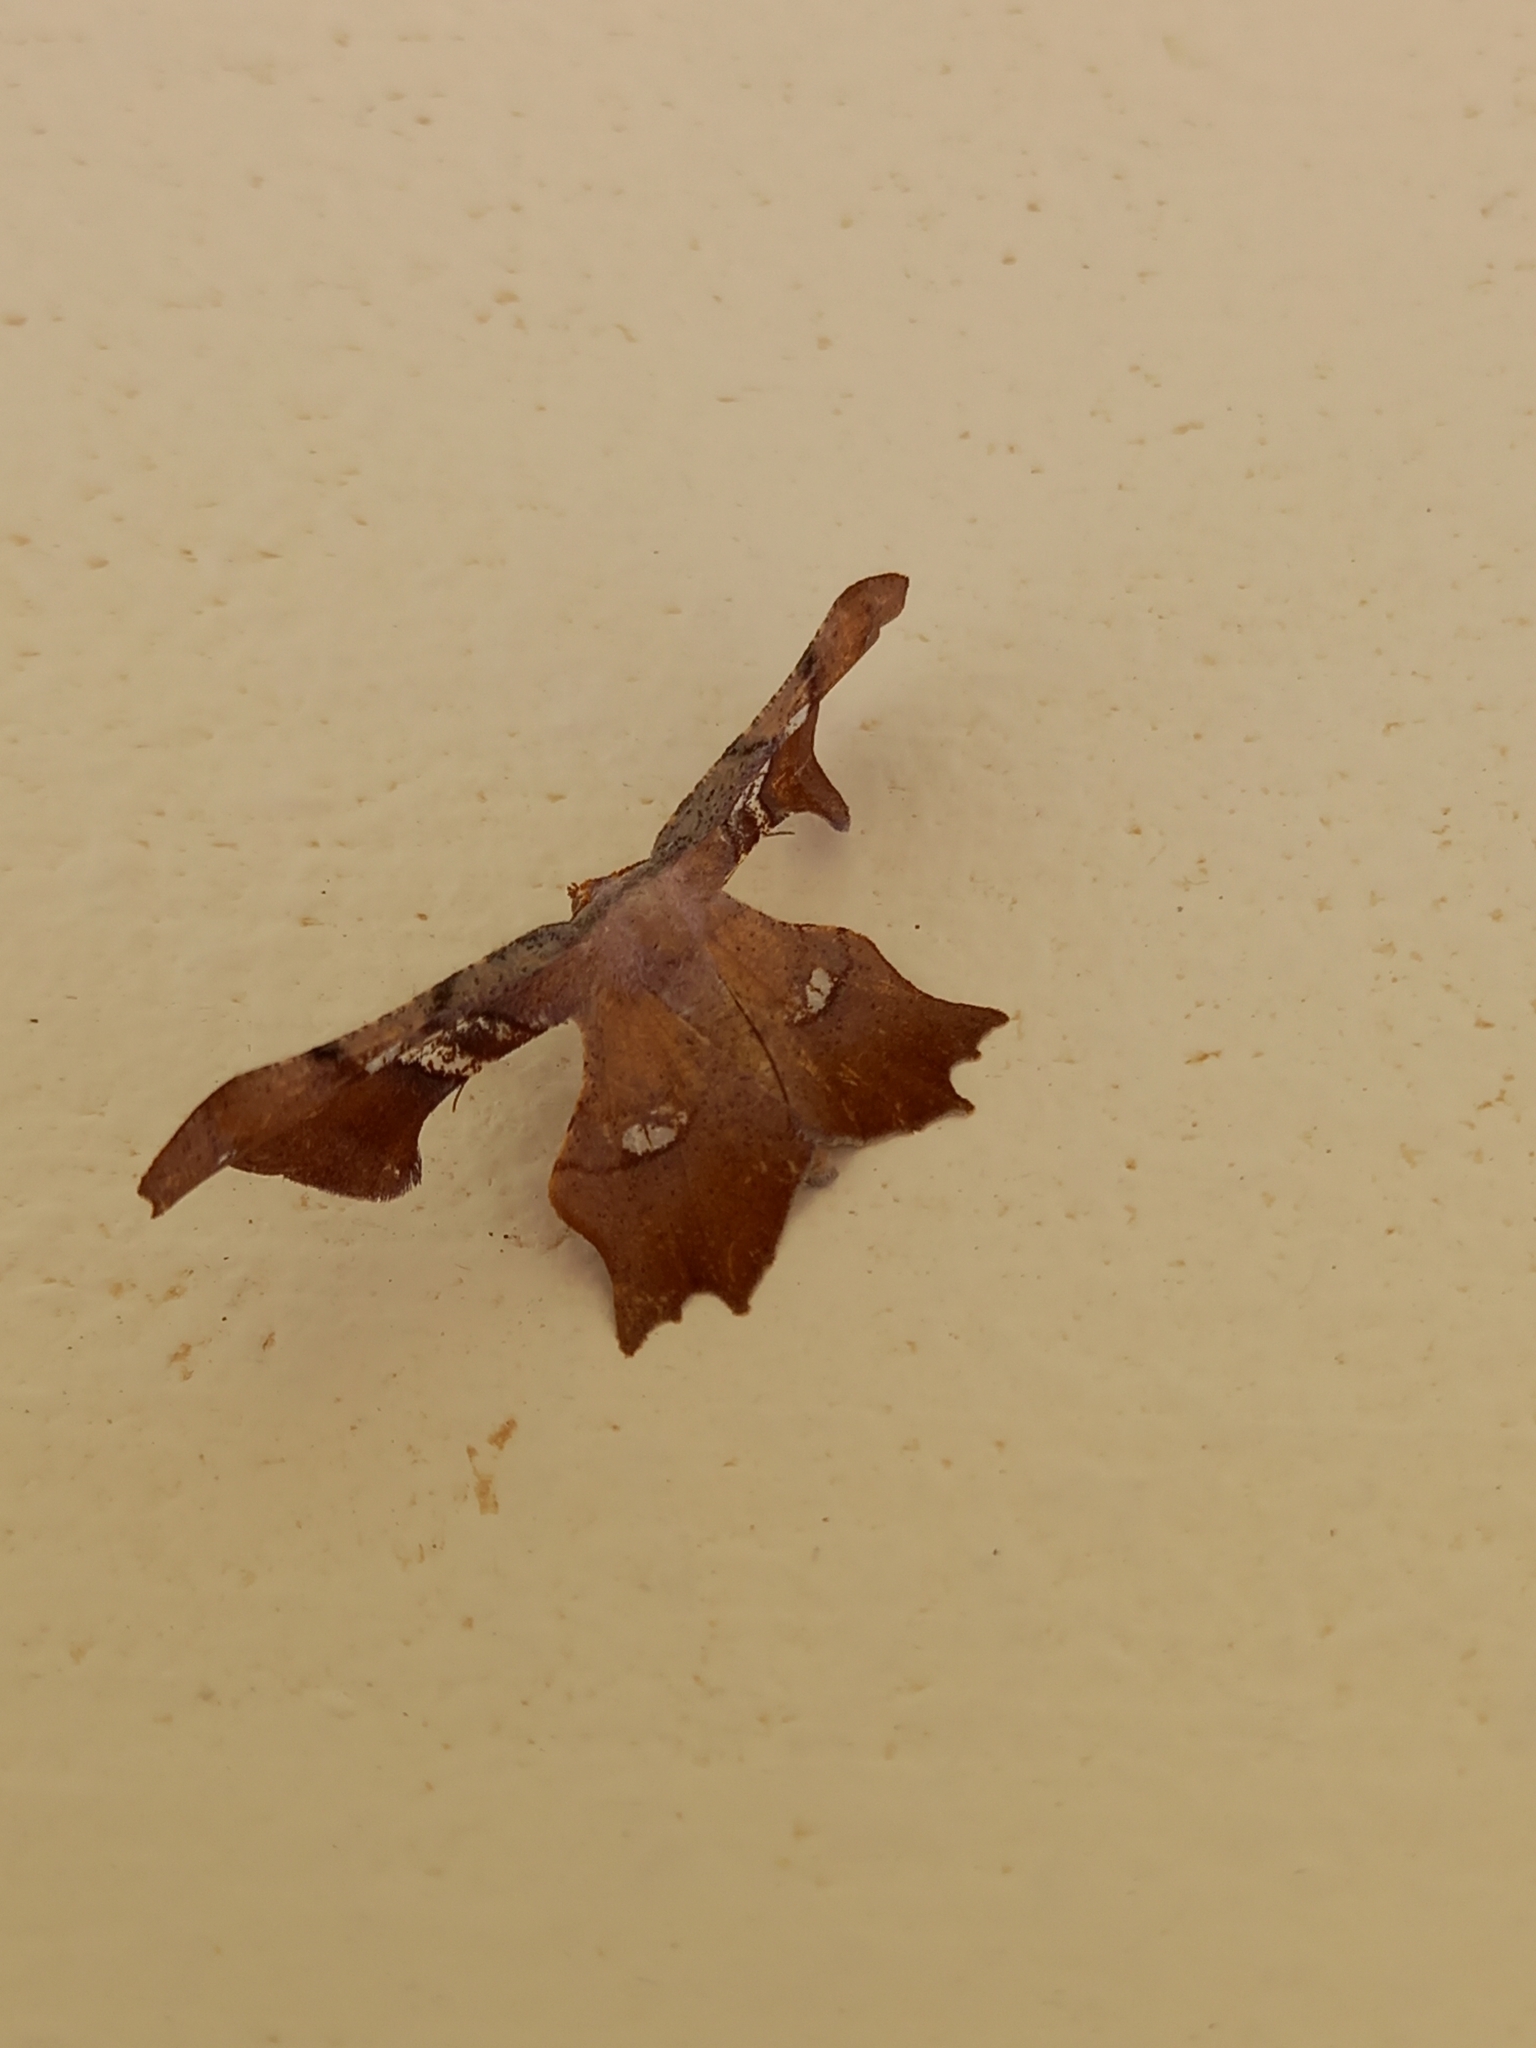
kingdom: Animalia
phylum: Arthropoda
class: Insecta
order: Lepidoptera
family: Geometridae
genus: Xenimpia
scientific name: Xenimpia erosa
